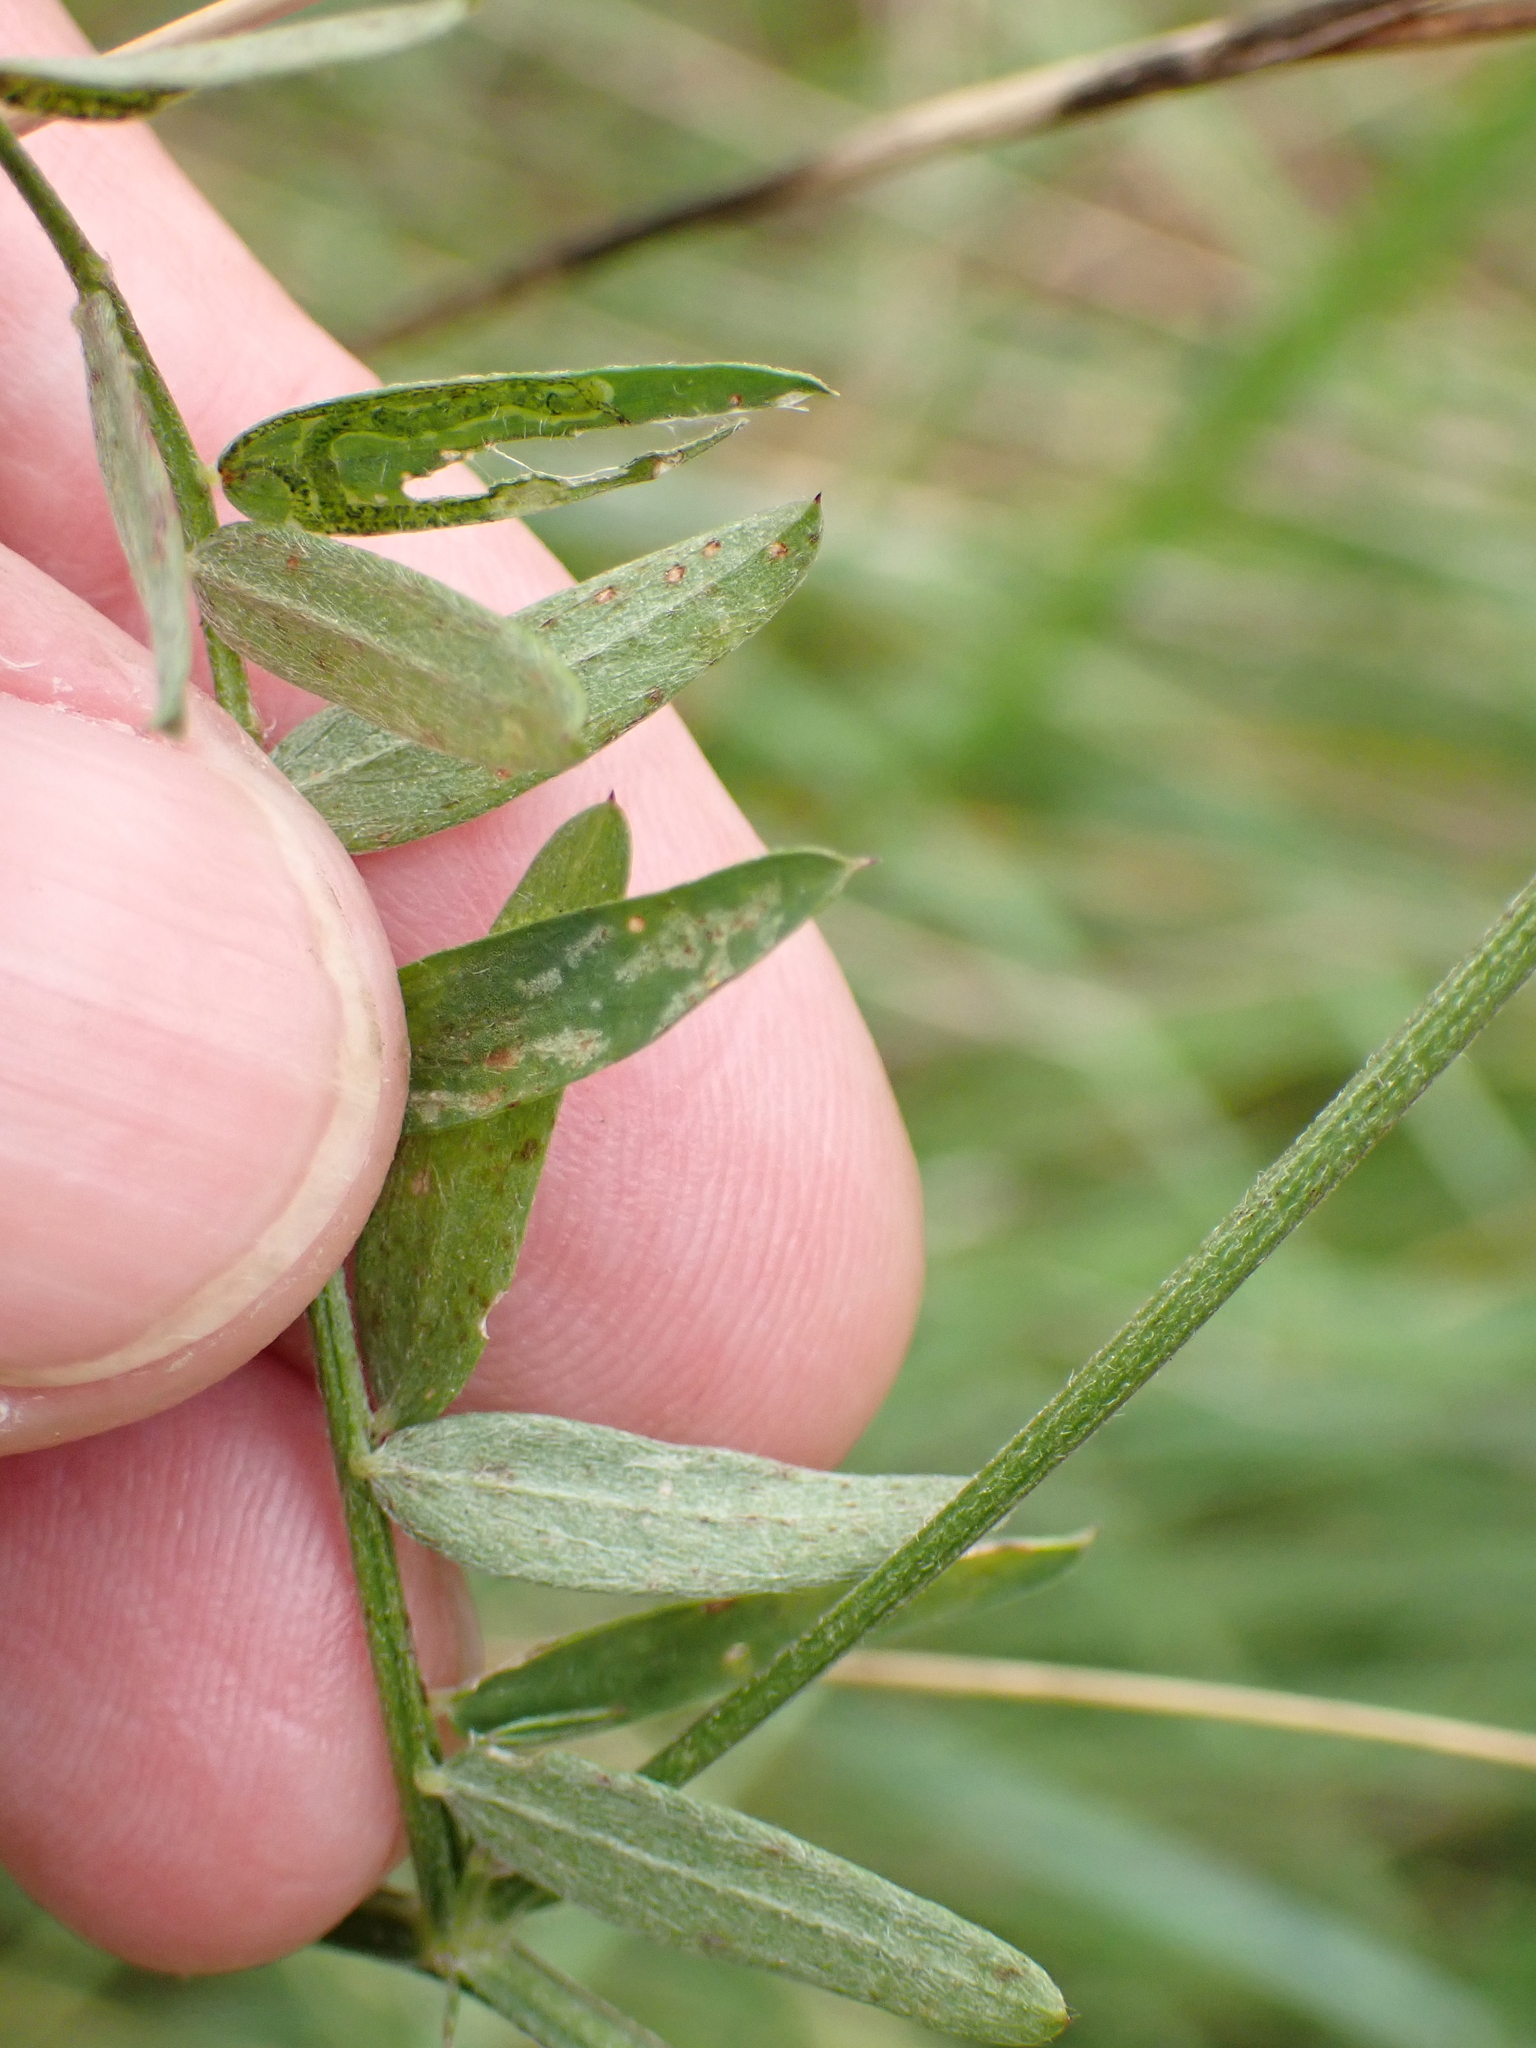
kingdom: Plantae
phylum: Tracheophyta
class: Magnoliopsida
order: Fabales
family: Fabaceae
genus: Vicia
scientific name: Vicia tetrasperma
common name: Smooth tare
